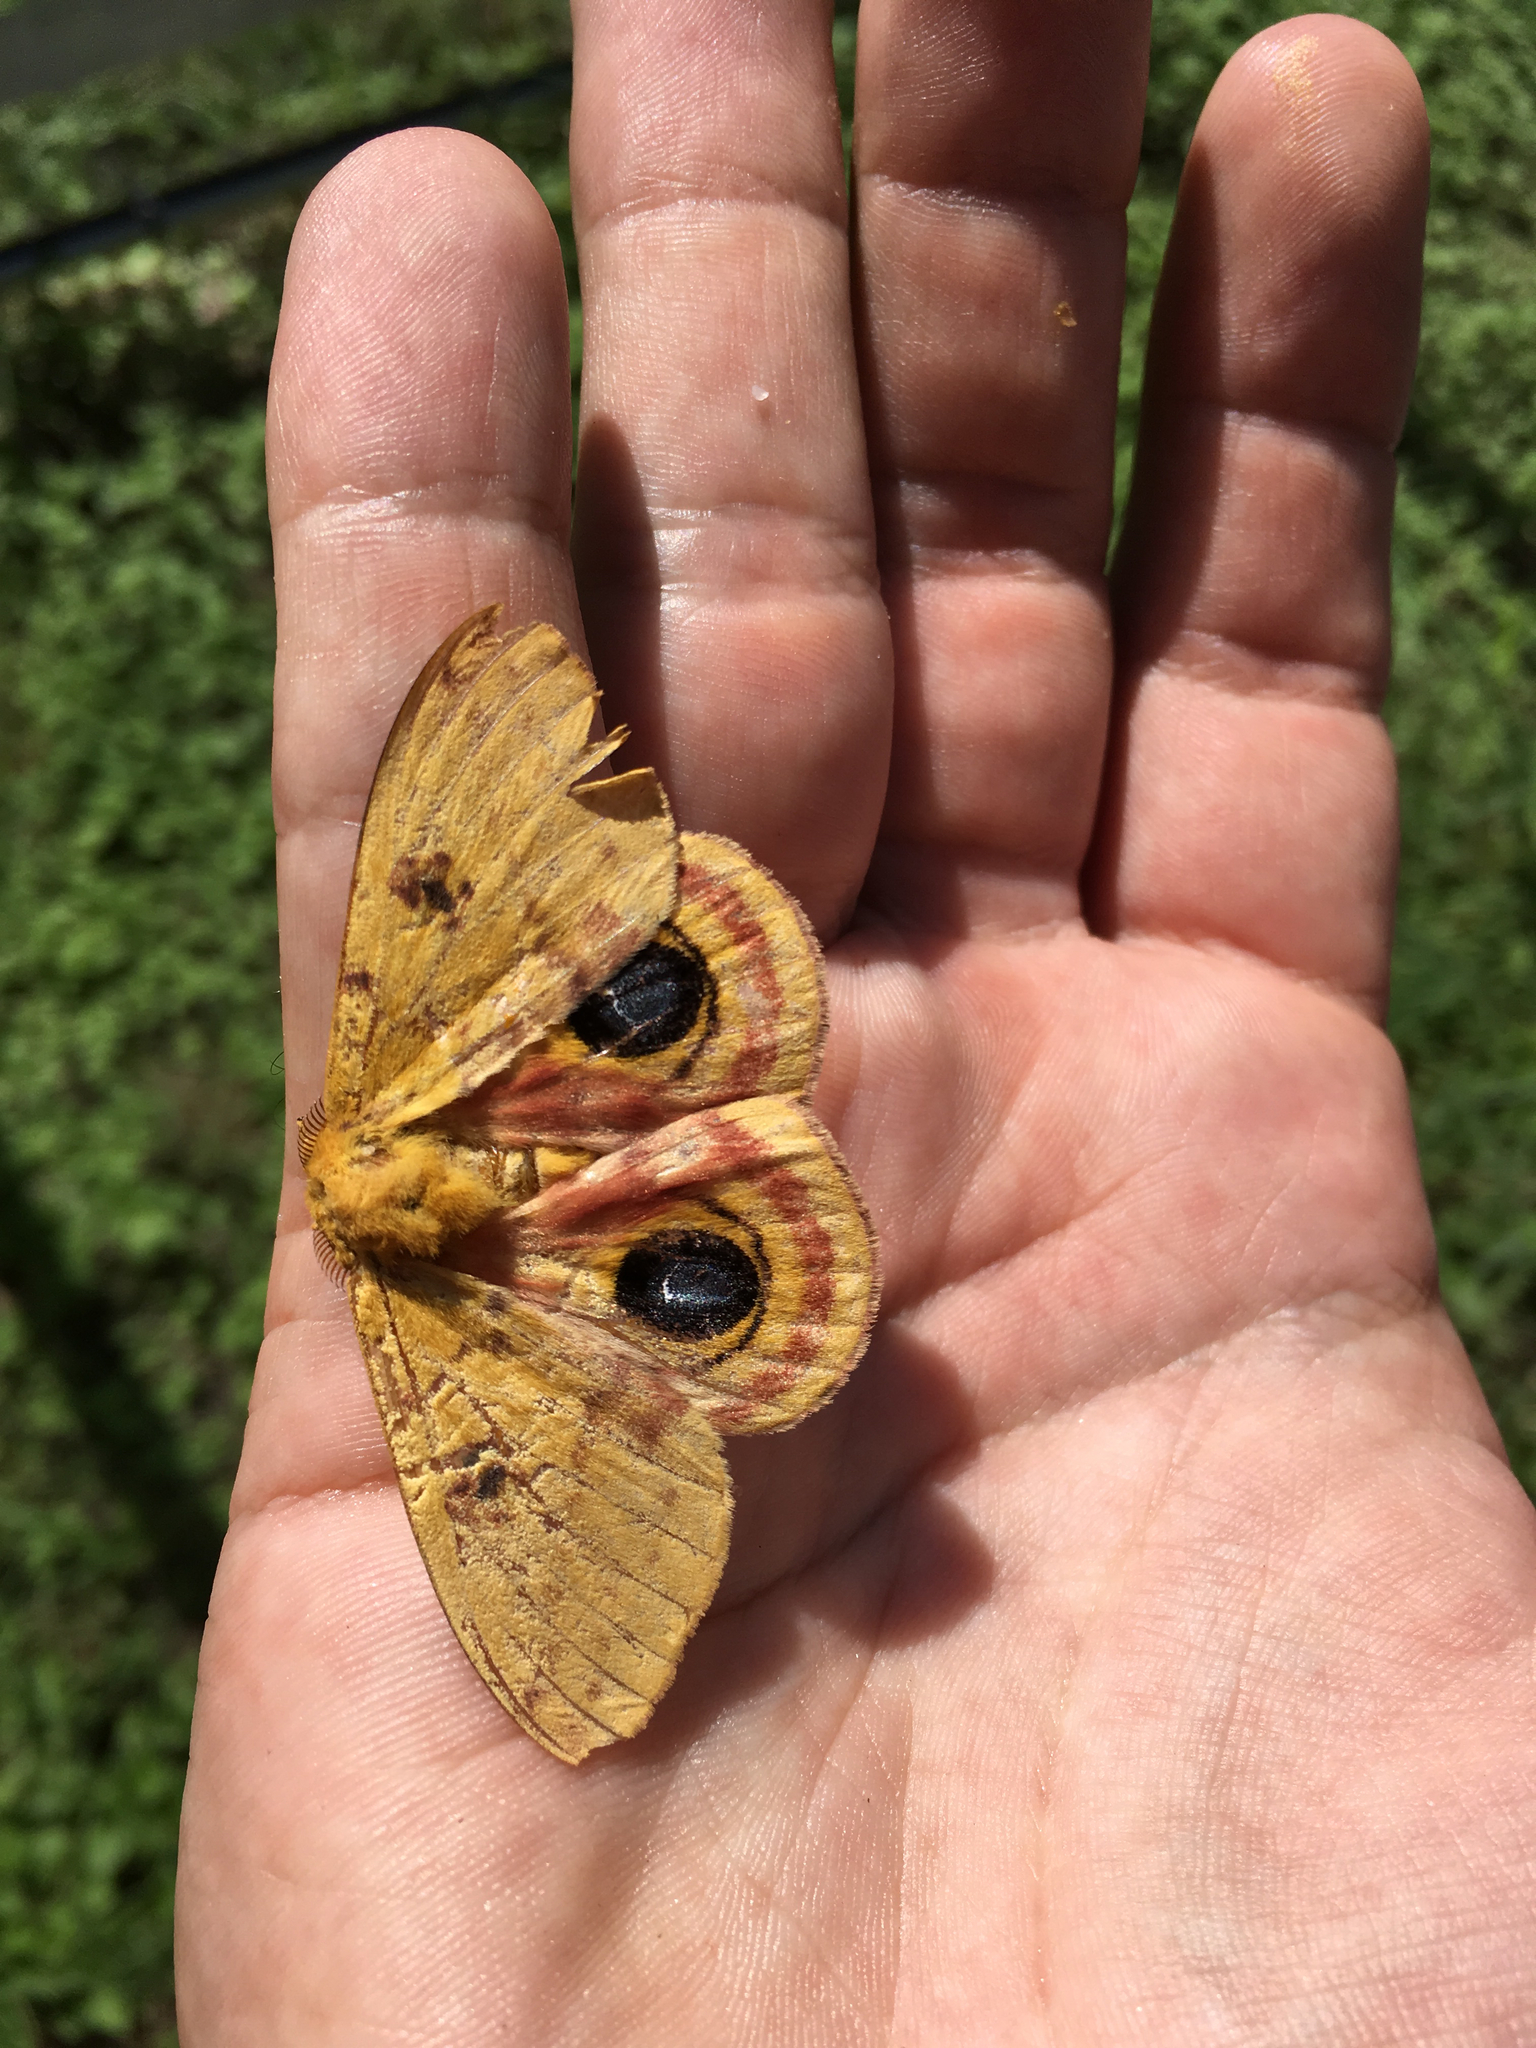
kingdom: Animalia
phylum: Arthropoda
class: Insecta
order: Lepidoptera
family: Saturniidae
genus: Automeris
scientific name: Automeris io
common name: Io moth
